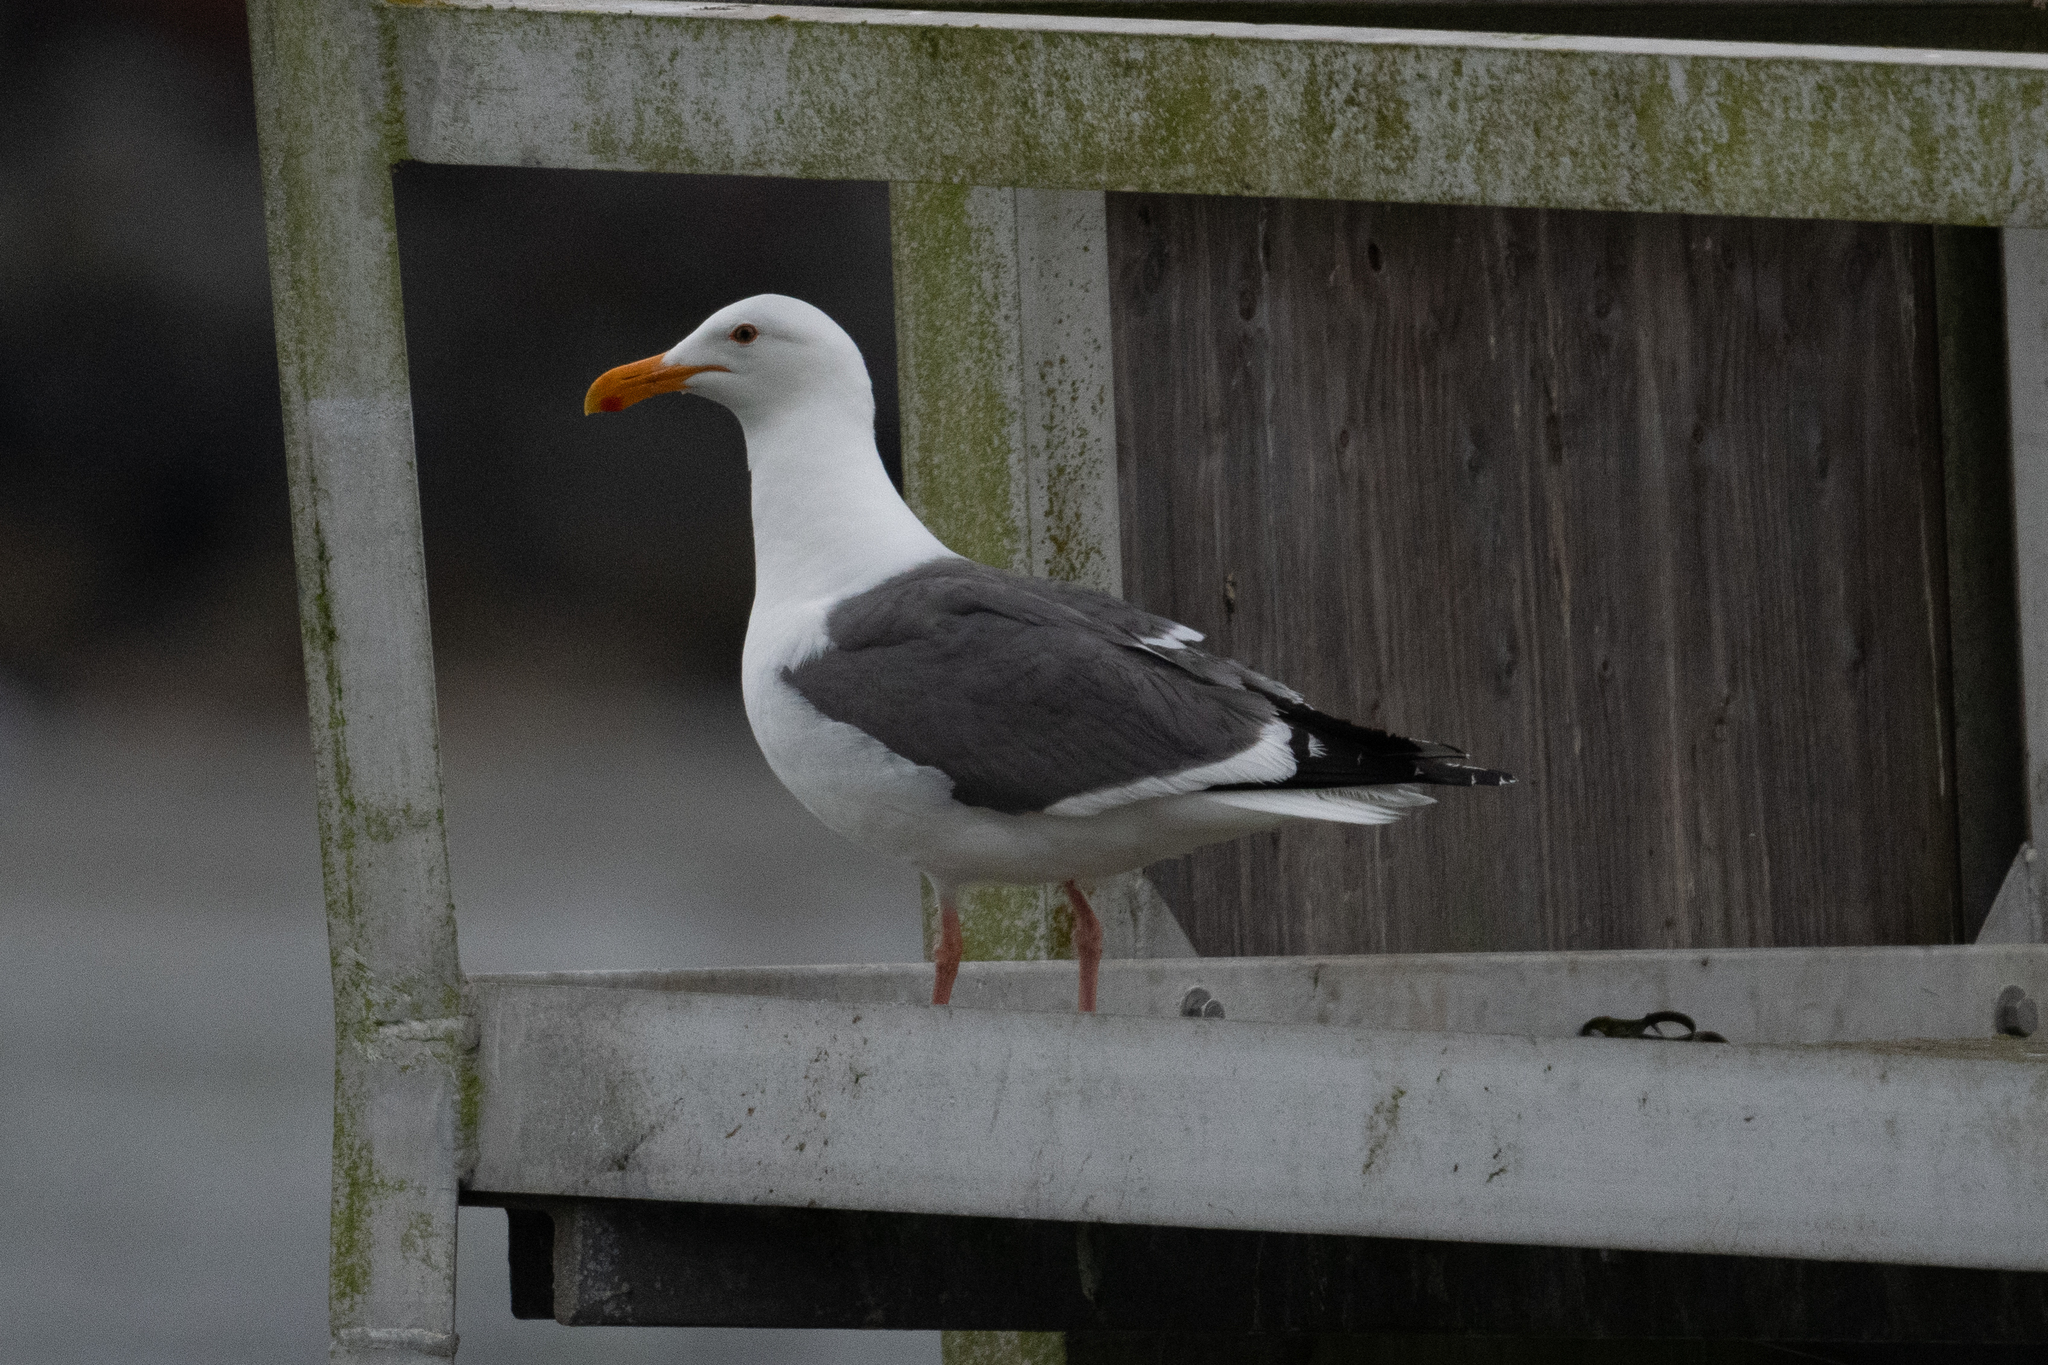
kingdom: Animalia
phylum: Chordata
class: Aves
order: Charadriiformes
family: Laridae
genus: Larus
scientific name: Larus occidentalis
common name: Western gull
